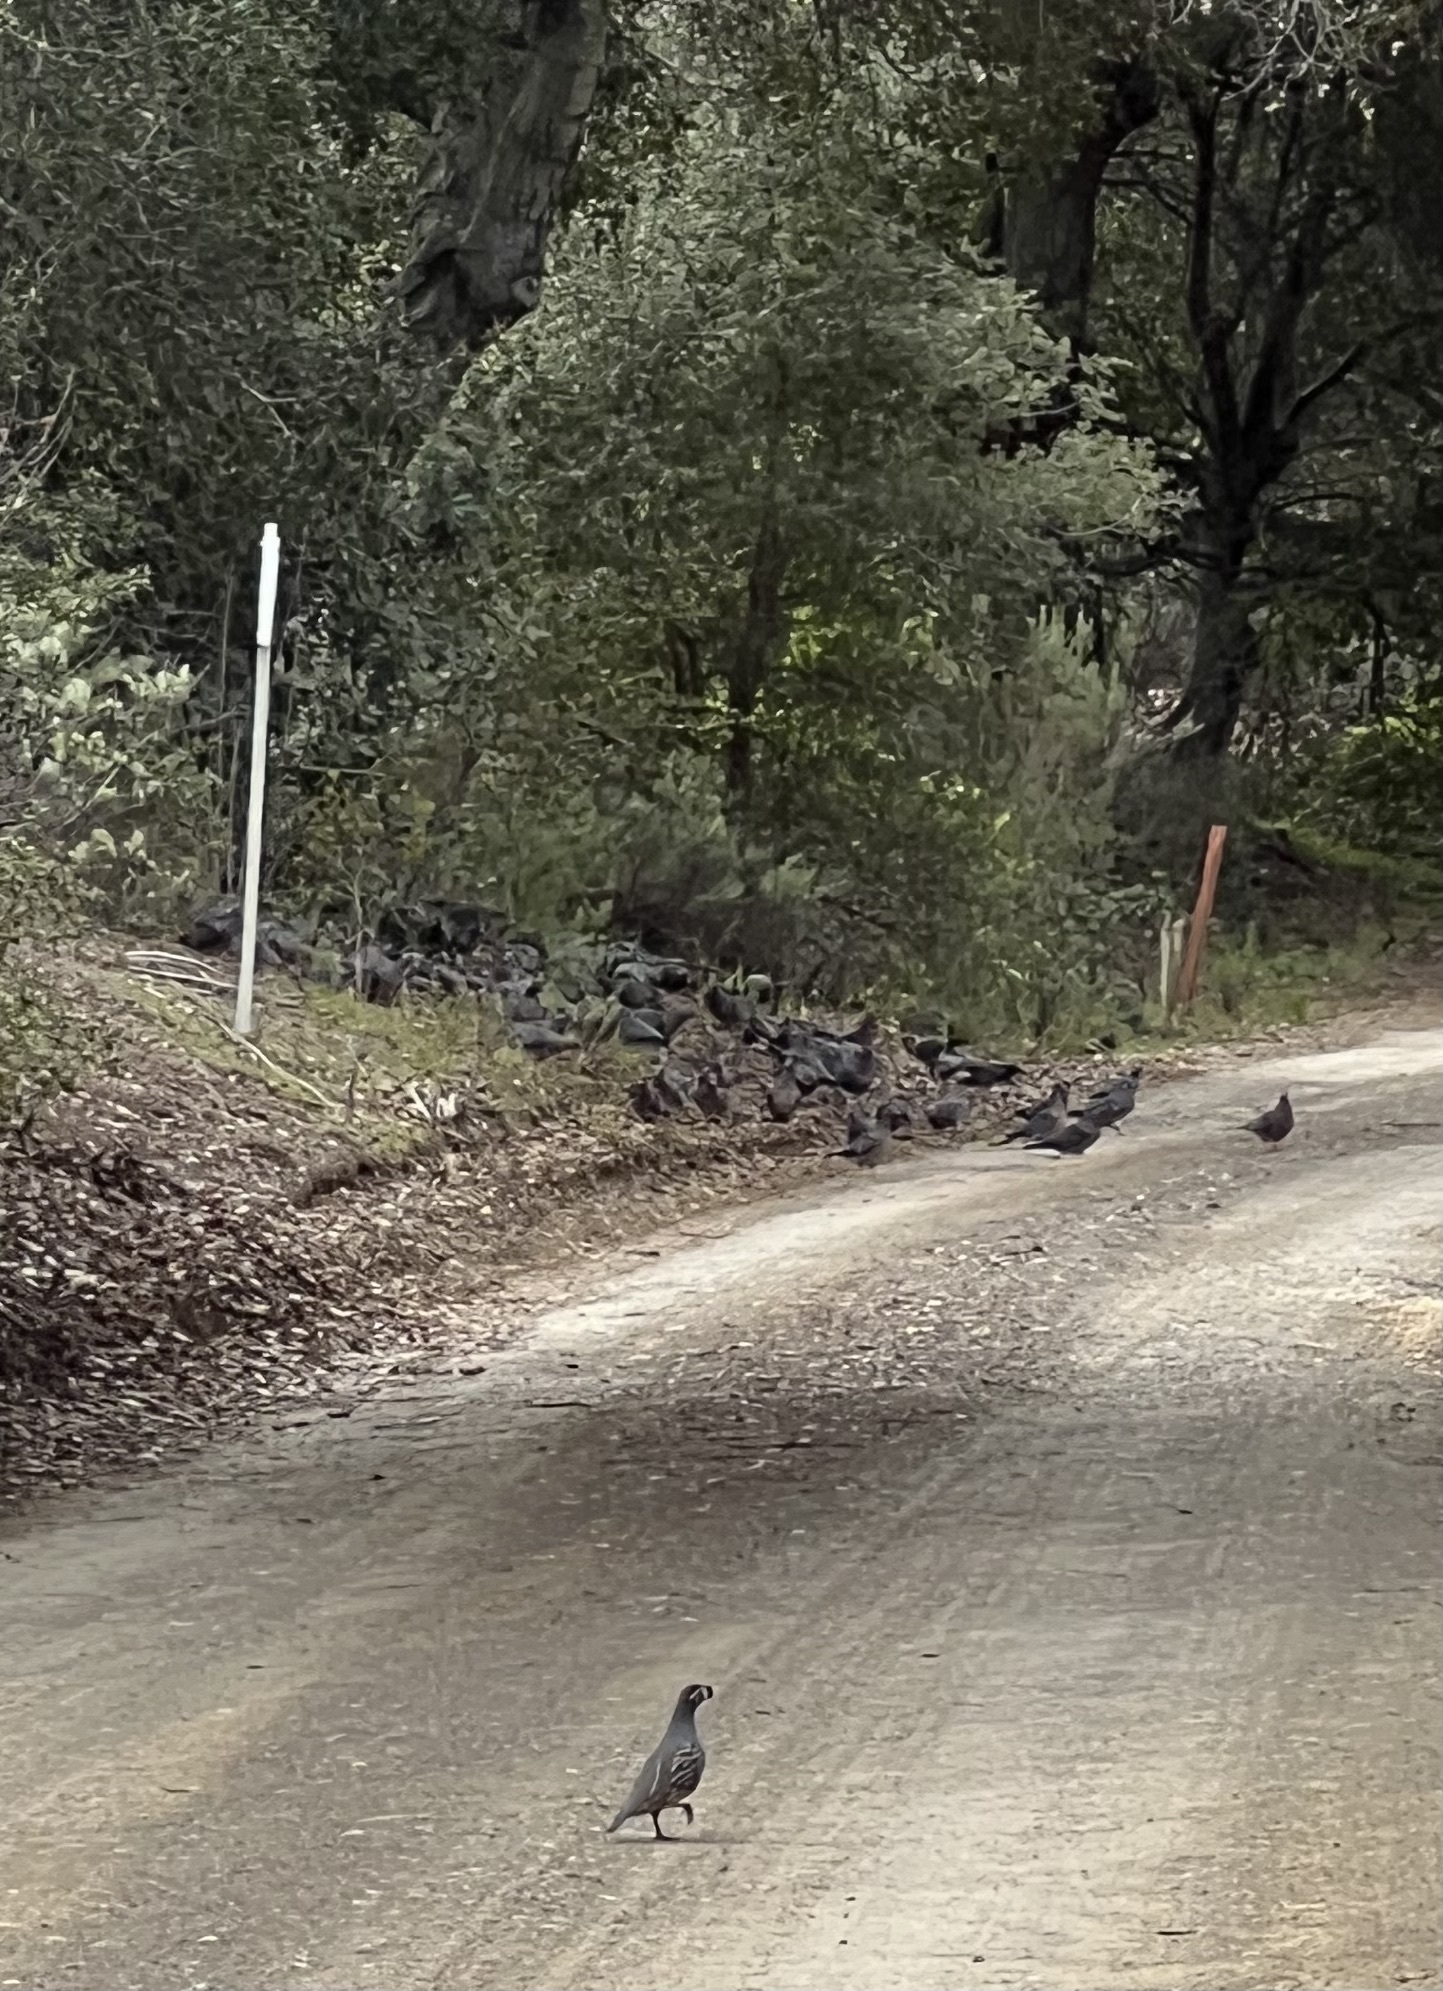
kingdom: Animalia
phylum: Chordata
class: Aves
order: Galliformes
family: Odontophoridae
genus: Callipepla
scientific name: Callipepla californica
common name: California quail
